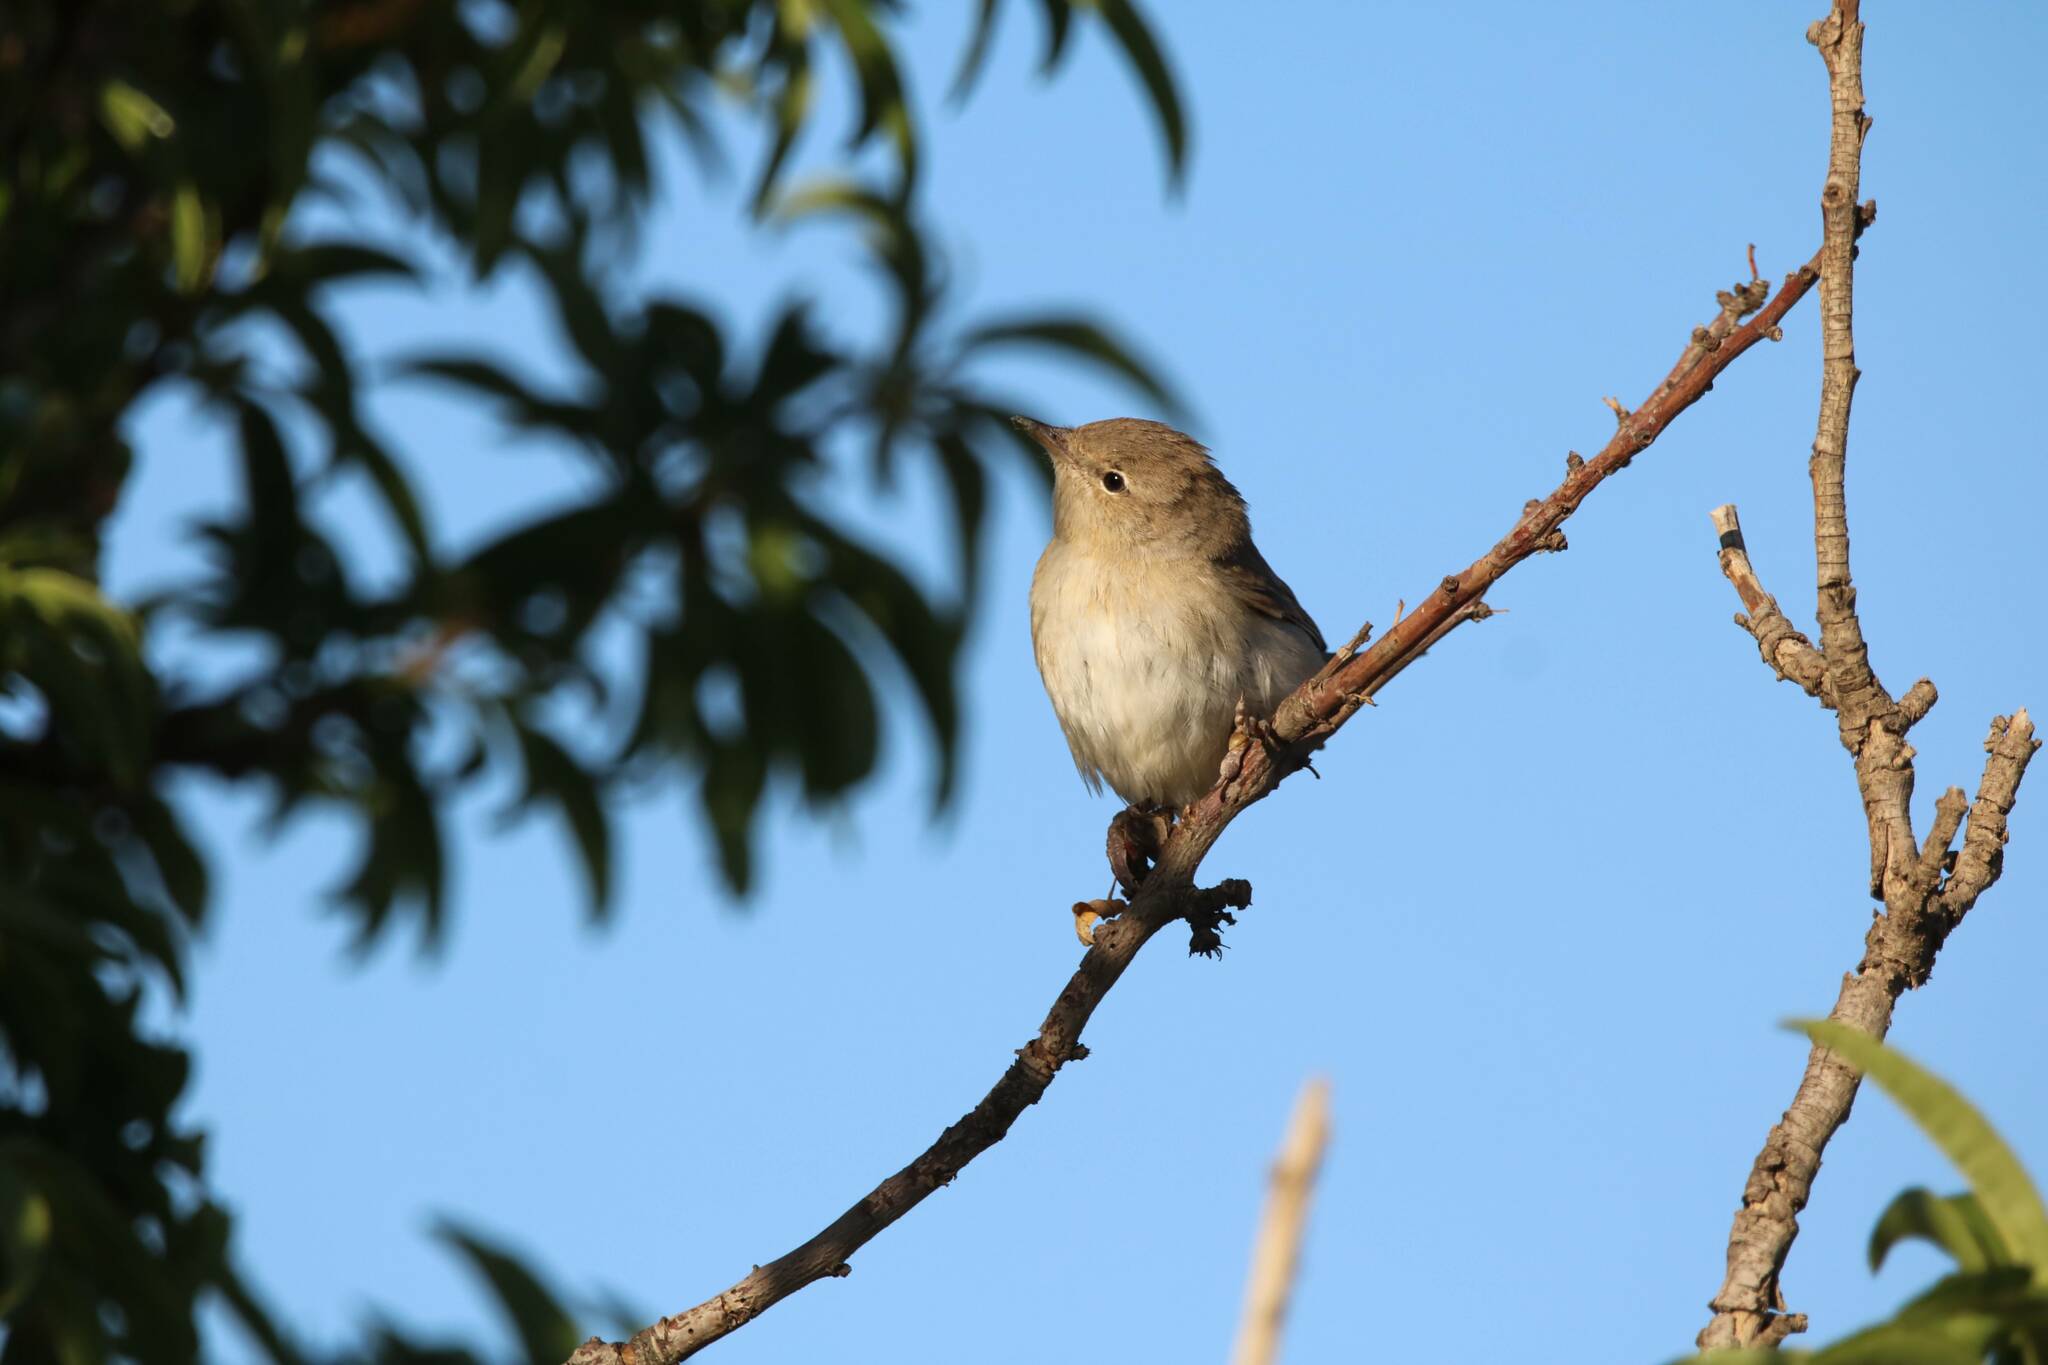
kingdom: Animalia
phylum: Chordata
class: Aves
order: Passeriformes
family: Sylviidae
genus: Sylvia
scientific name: Sylvia borin
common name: Garden warbler
